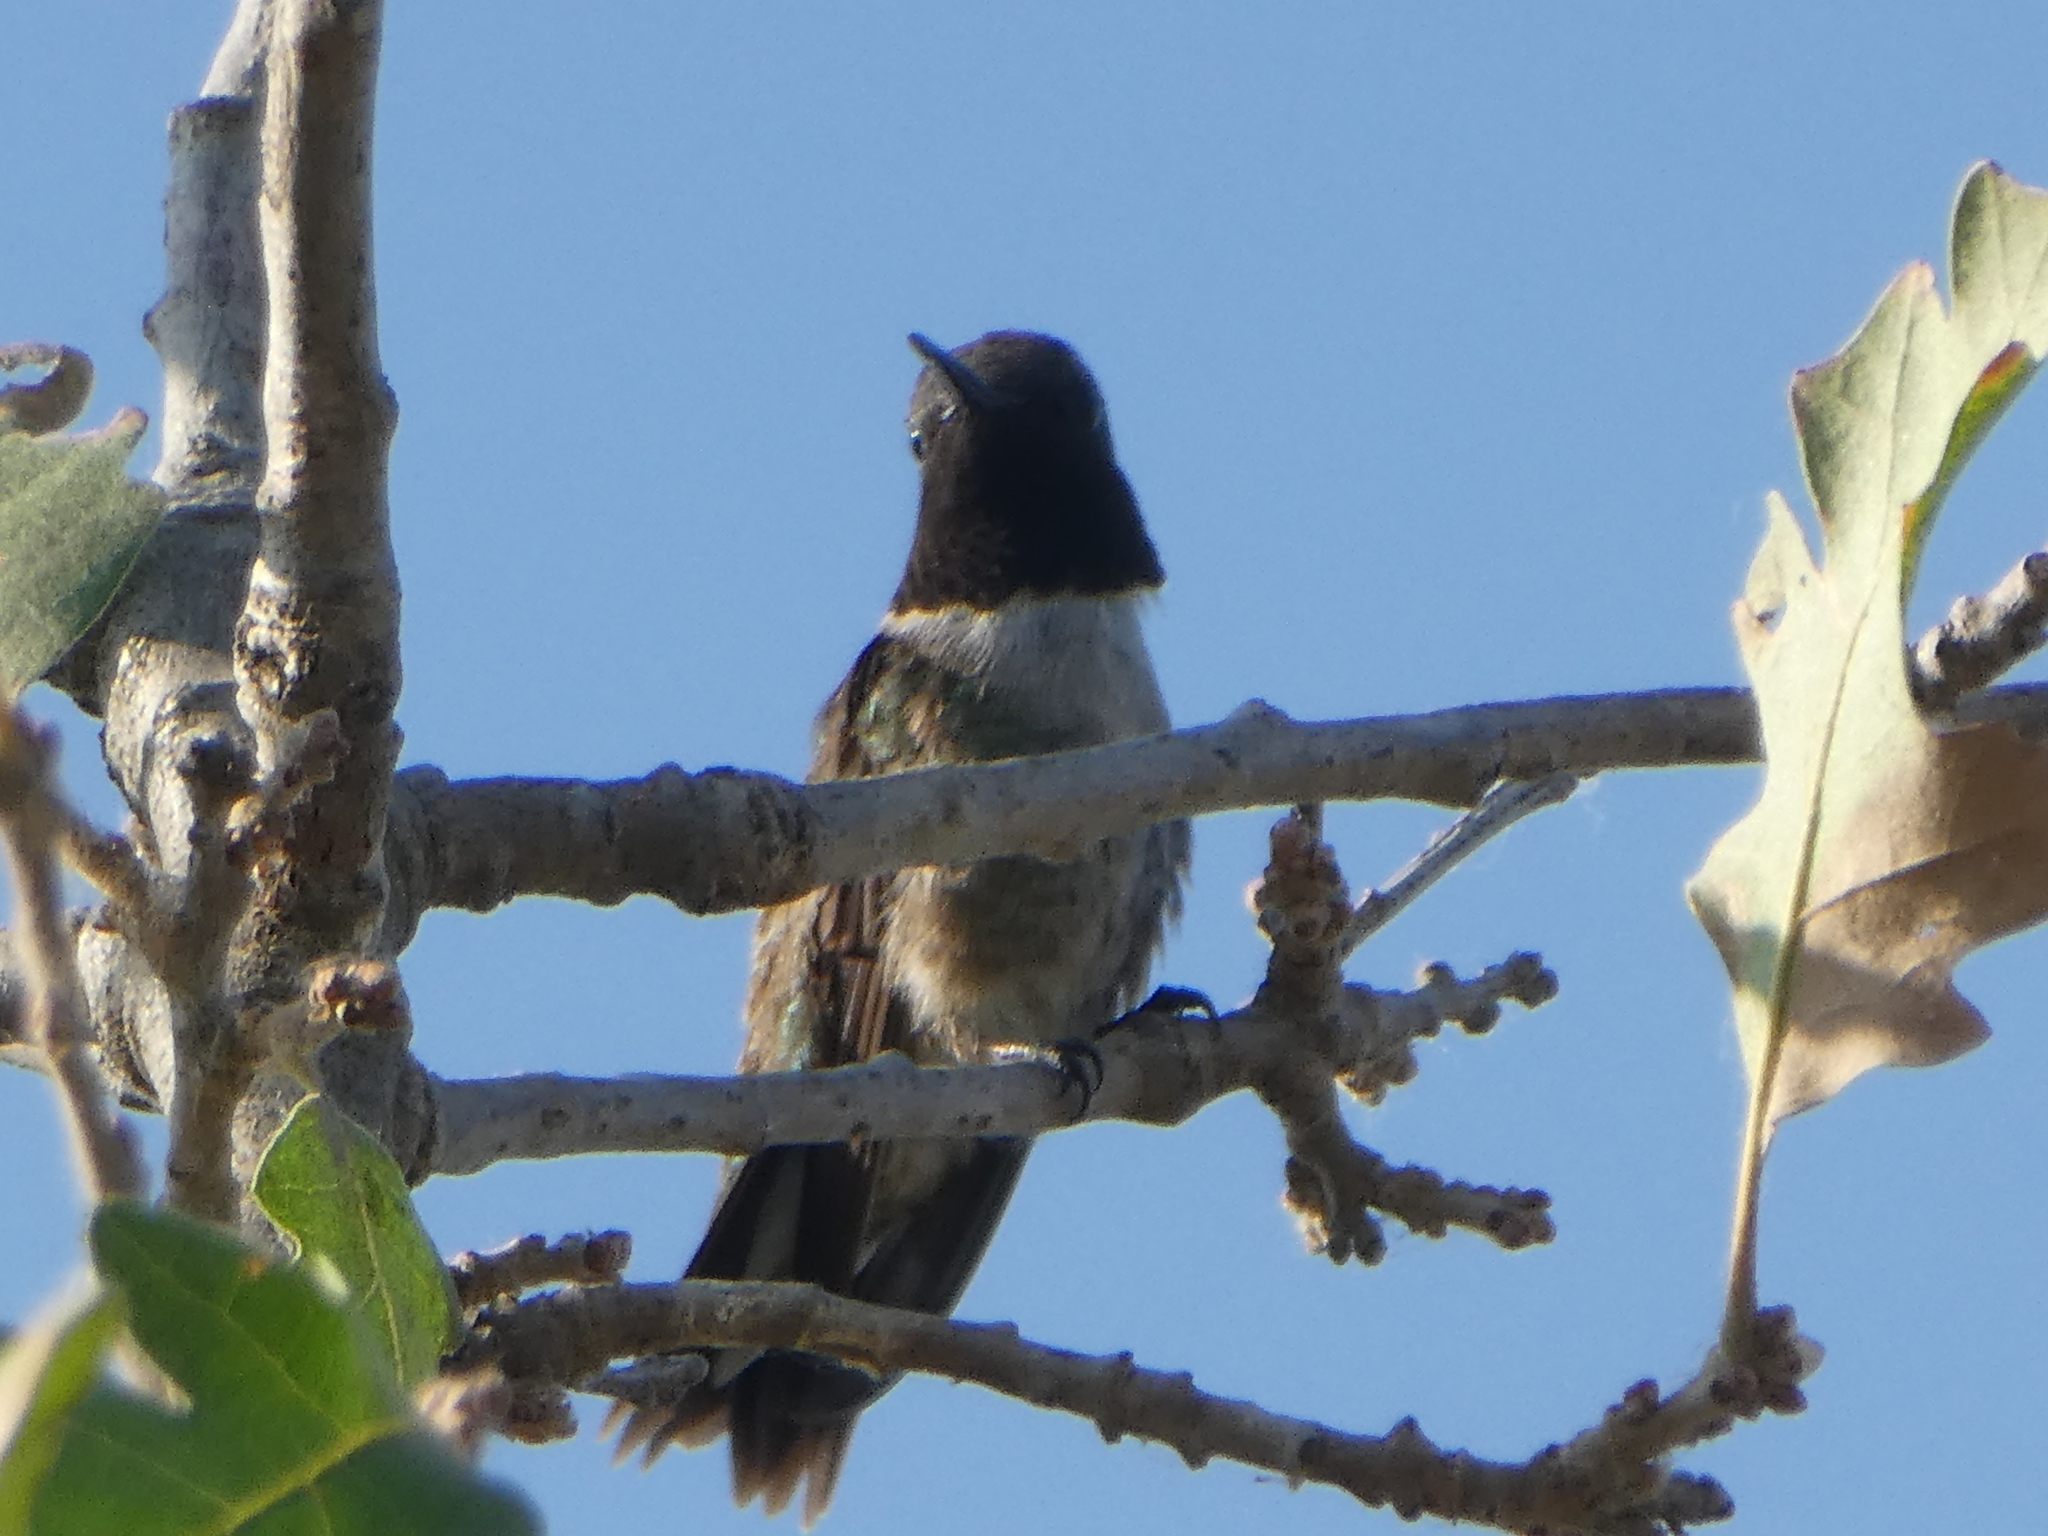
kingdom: Animalia
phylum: Chordata
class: Aves
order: Apodiformes
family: Trochilidae
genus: Archilochus
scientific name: Archilochus alexandri
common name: Black-chinned hummingbird
